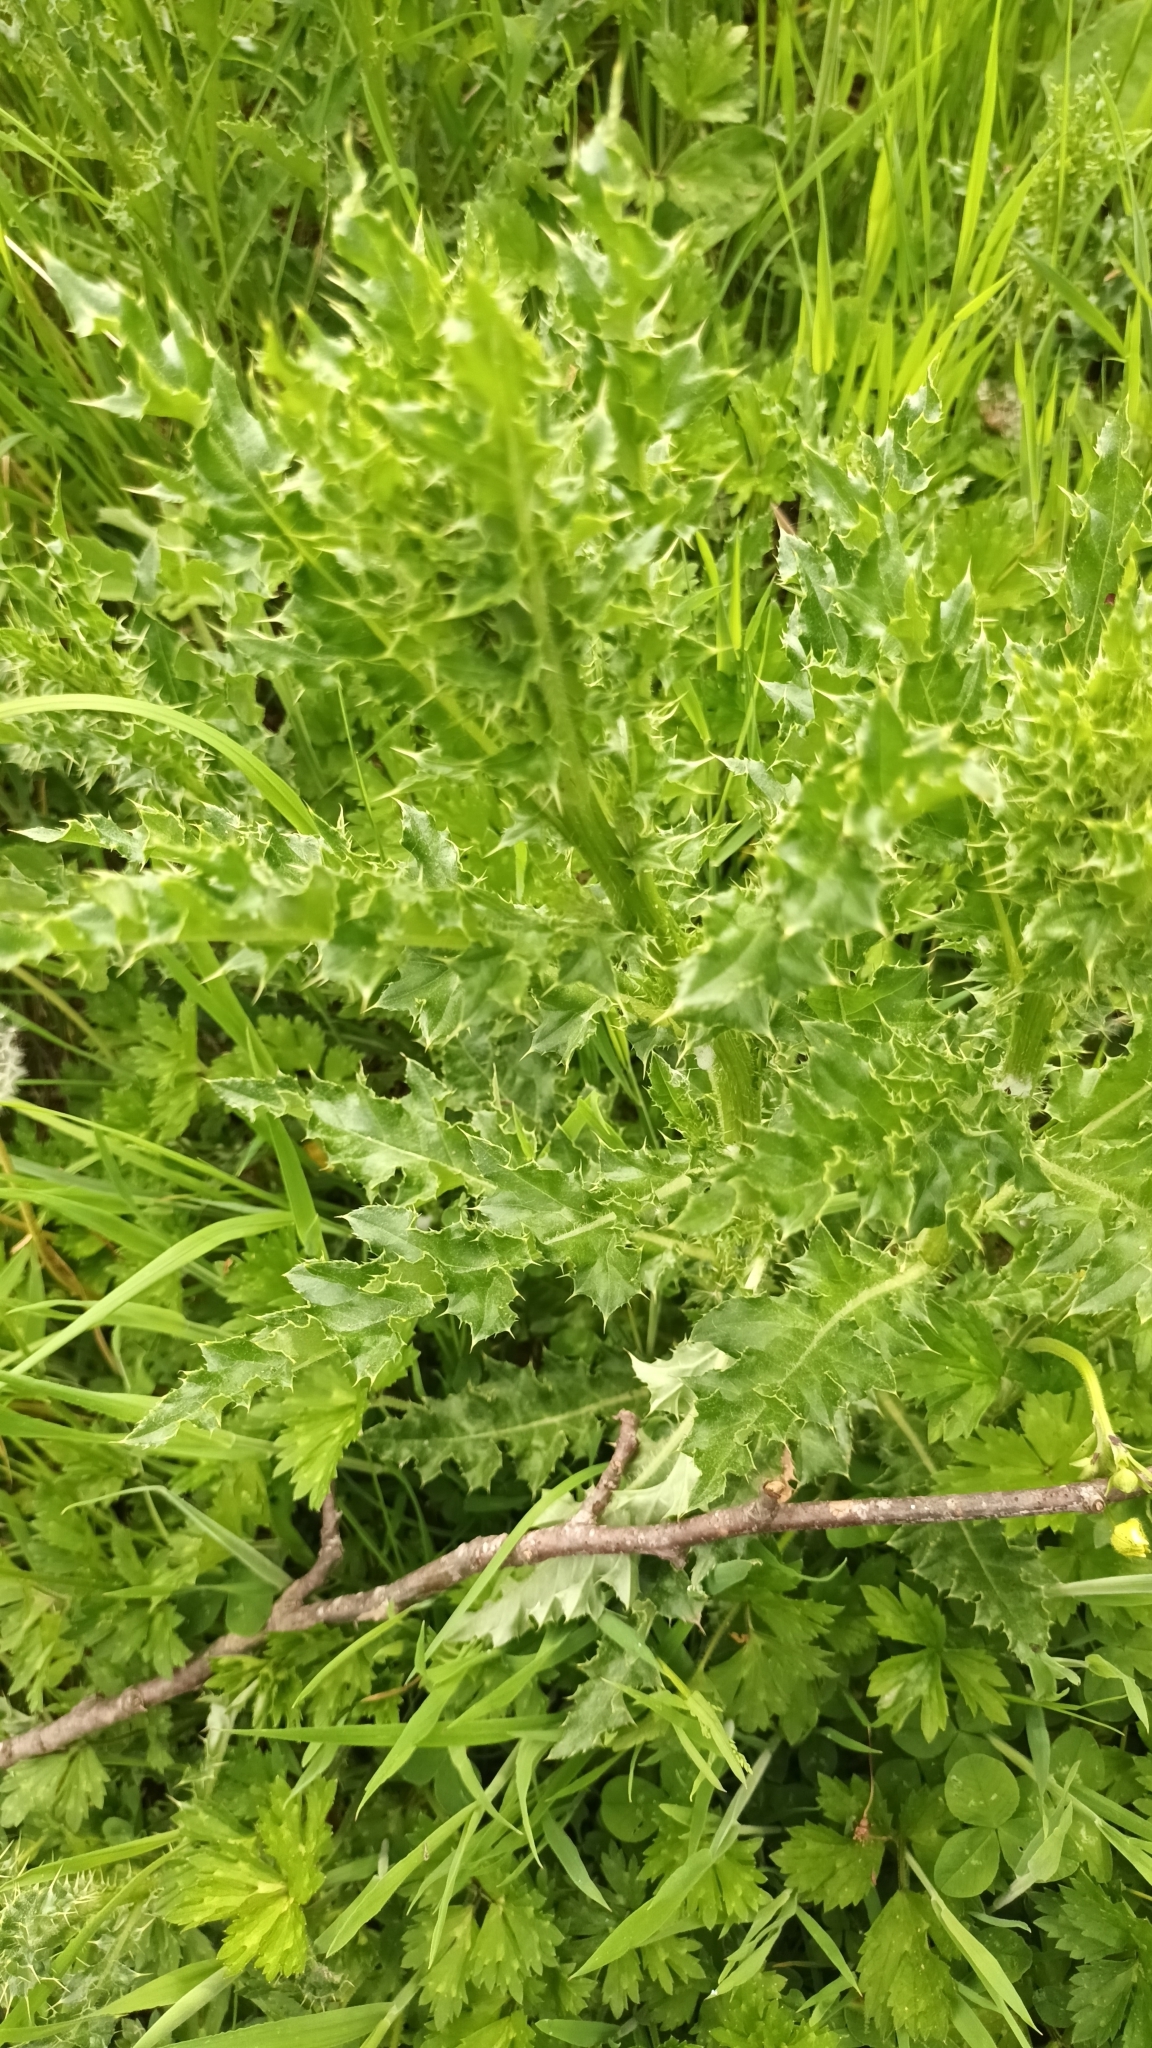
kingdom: Plantae
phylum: Tracheophyta
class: Magnoliopsida
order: Asterales
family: Asteraceae
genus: Cirsium
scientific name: Cirsium arvense
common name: Creeping thistle
